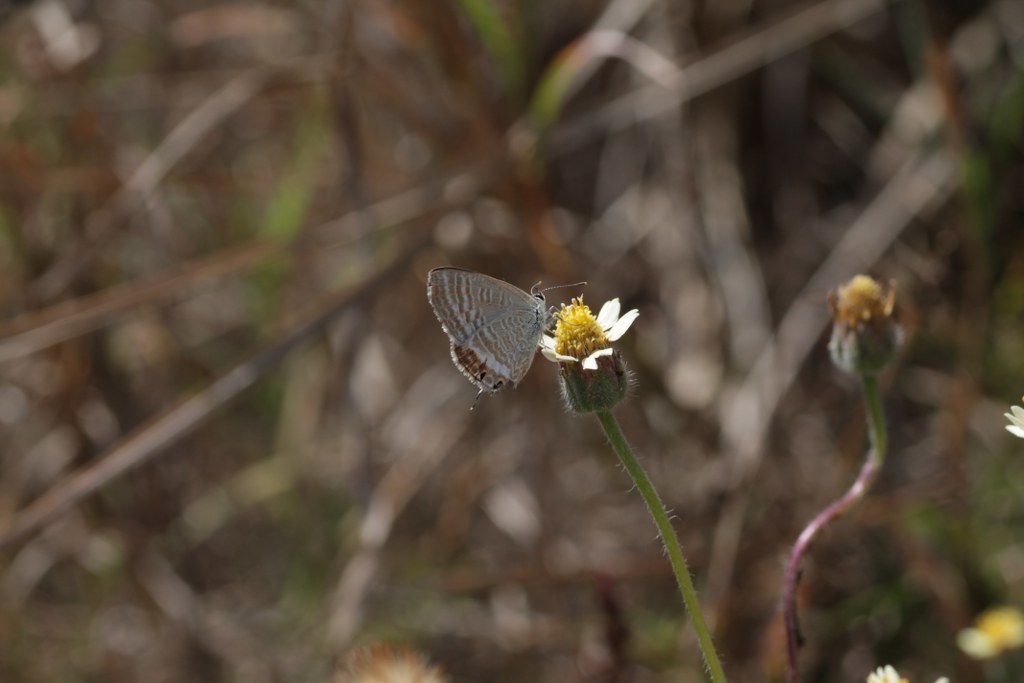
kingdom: Plantae
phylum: Tracheophyta
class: Magnoliopsida
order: Asterales
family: Asteraceae
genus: Tridax
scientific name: Tridax procumbens
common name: Coatbuttons
